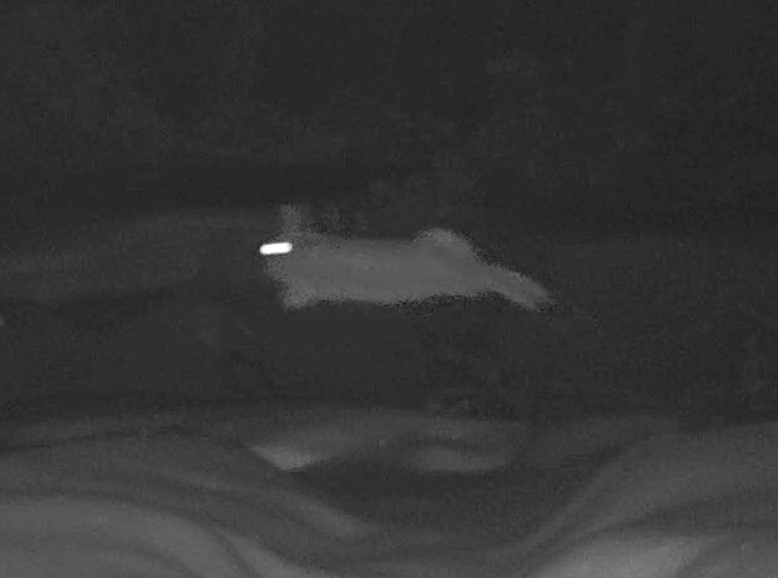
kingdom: Animalia
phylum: Chordata
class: Mammalia
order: Lagomorpha
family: Leporidae
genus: Sylvilagus
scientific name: Sylvilagus floridanus
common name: Eastern cottontail
